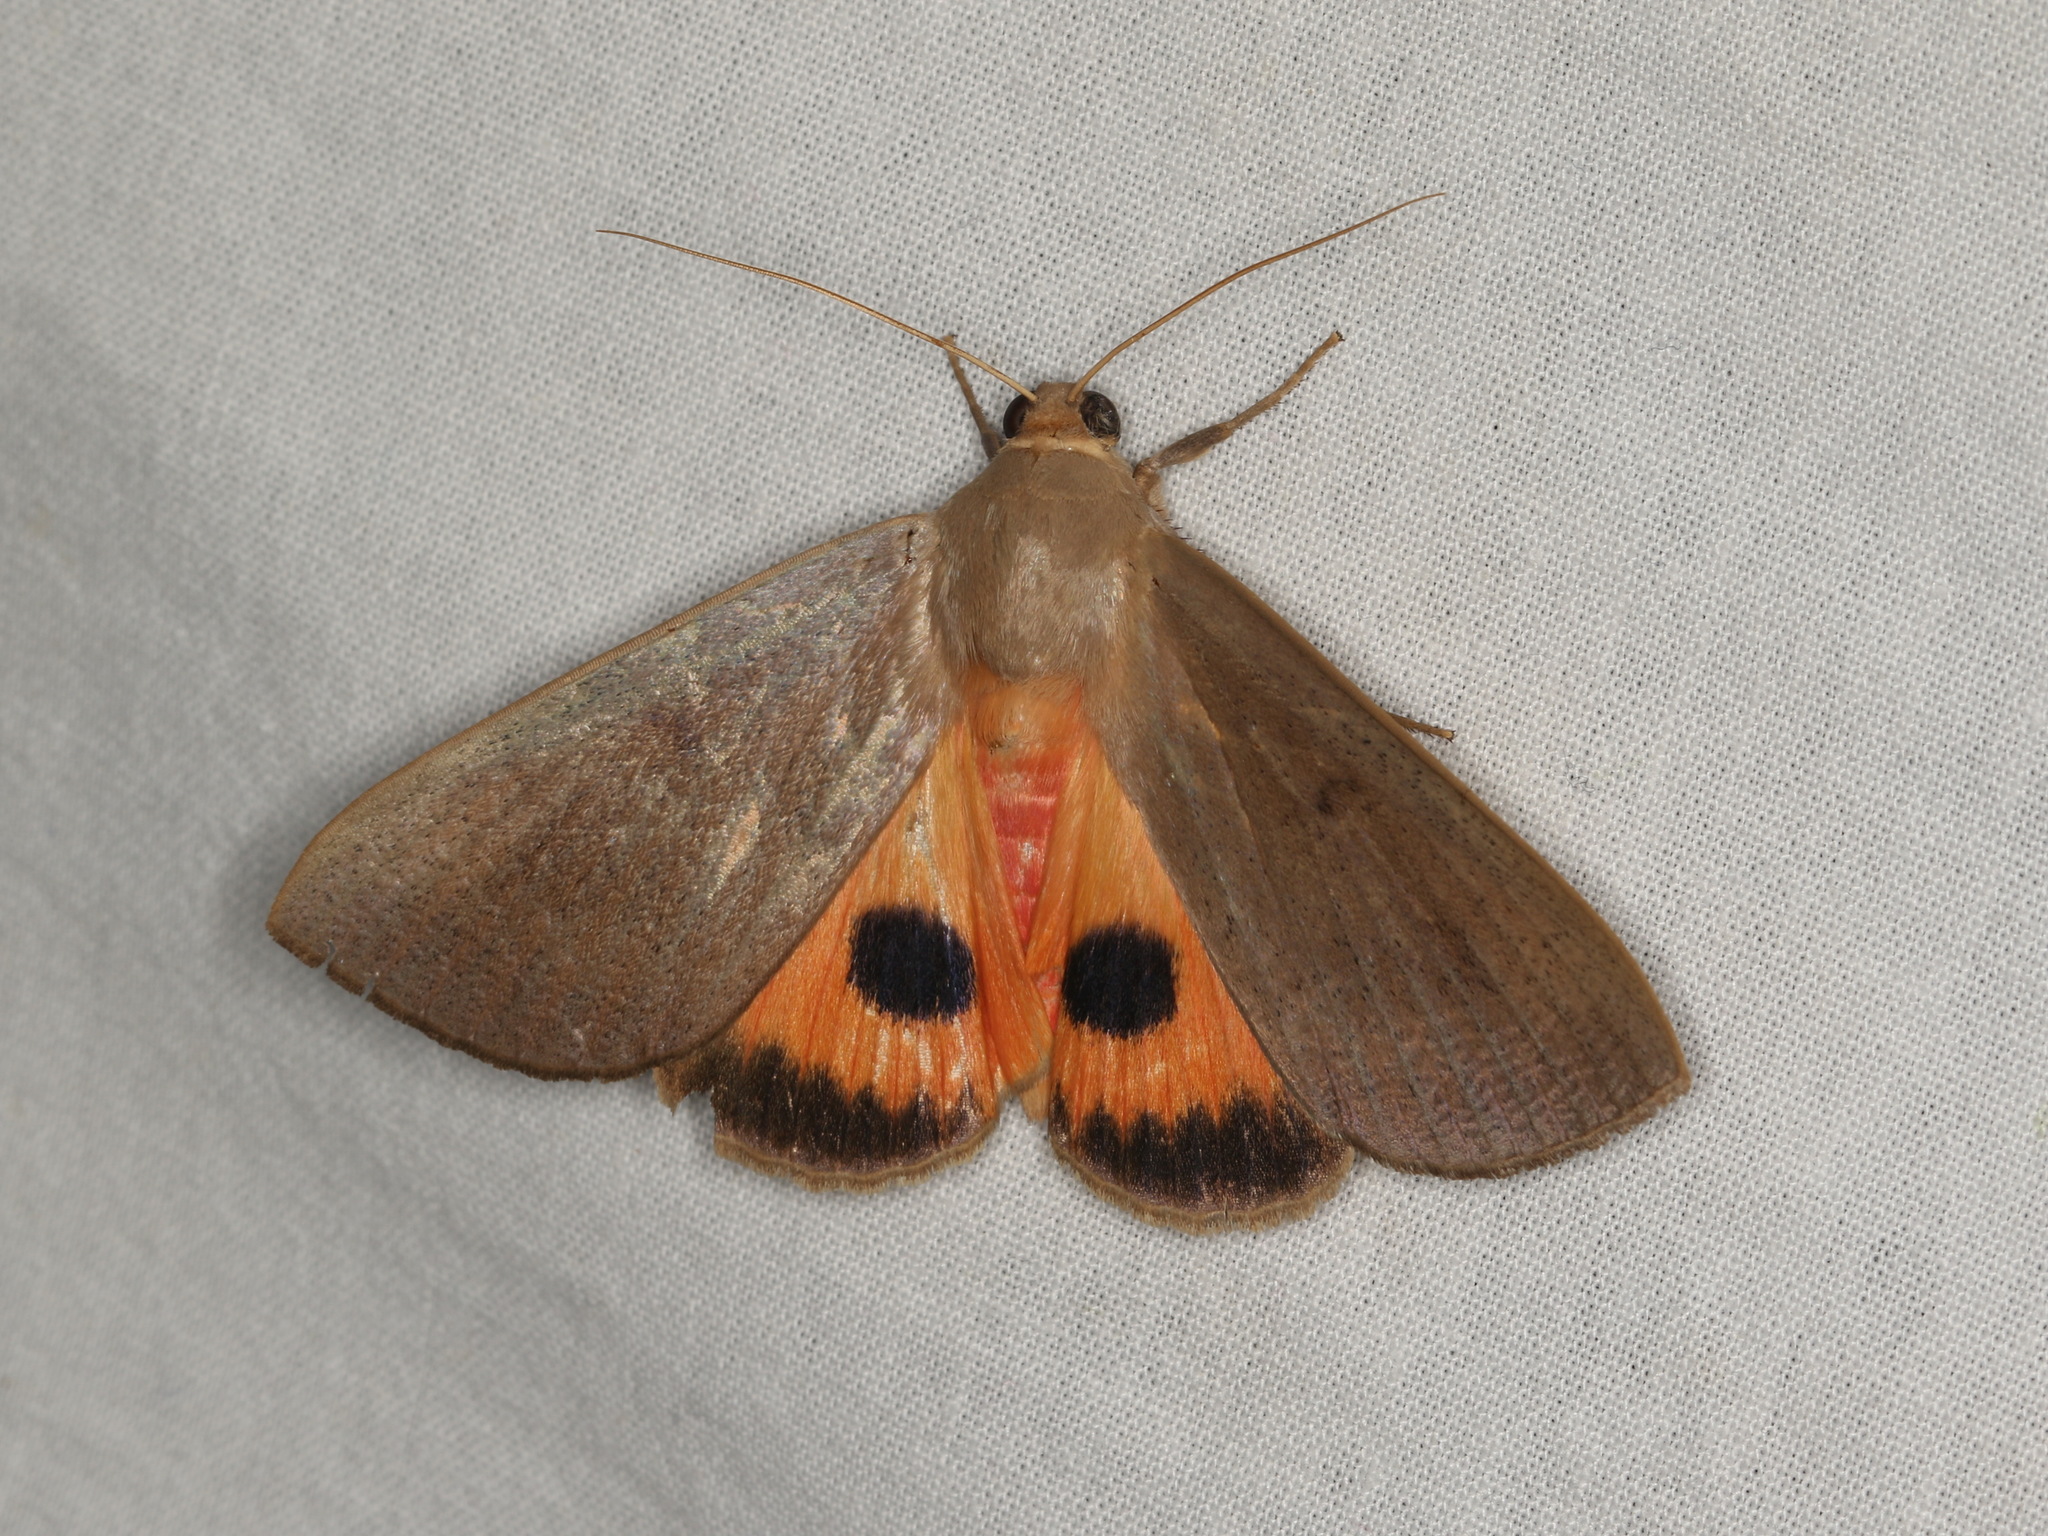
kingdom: Animalia
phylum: Arthropoda
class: Insecta
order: Lepidoptera
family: Erebidae
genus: Thyas
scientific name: Thyas microrrhaea
